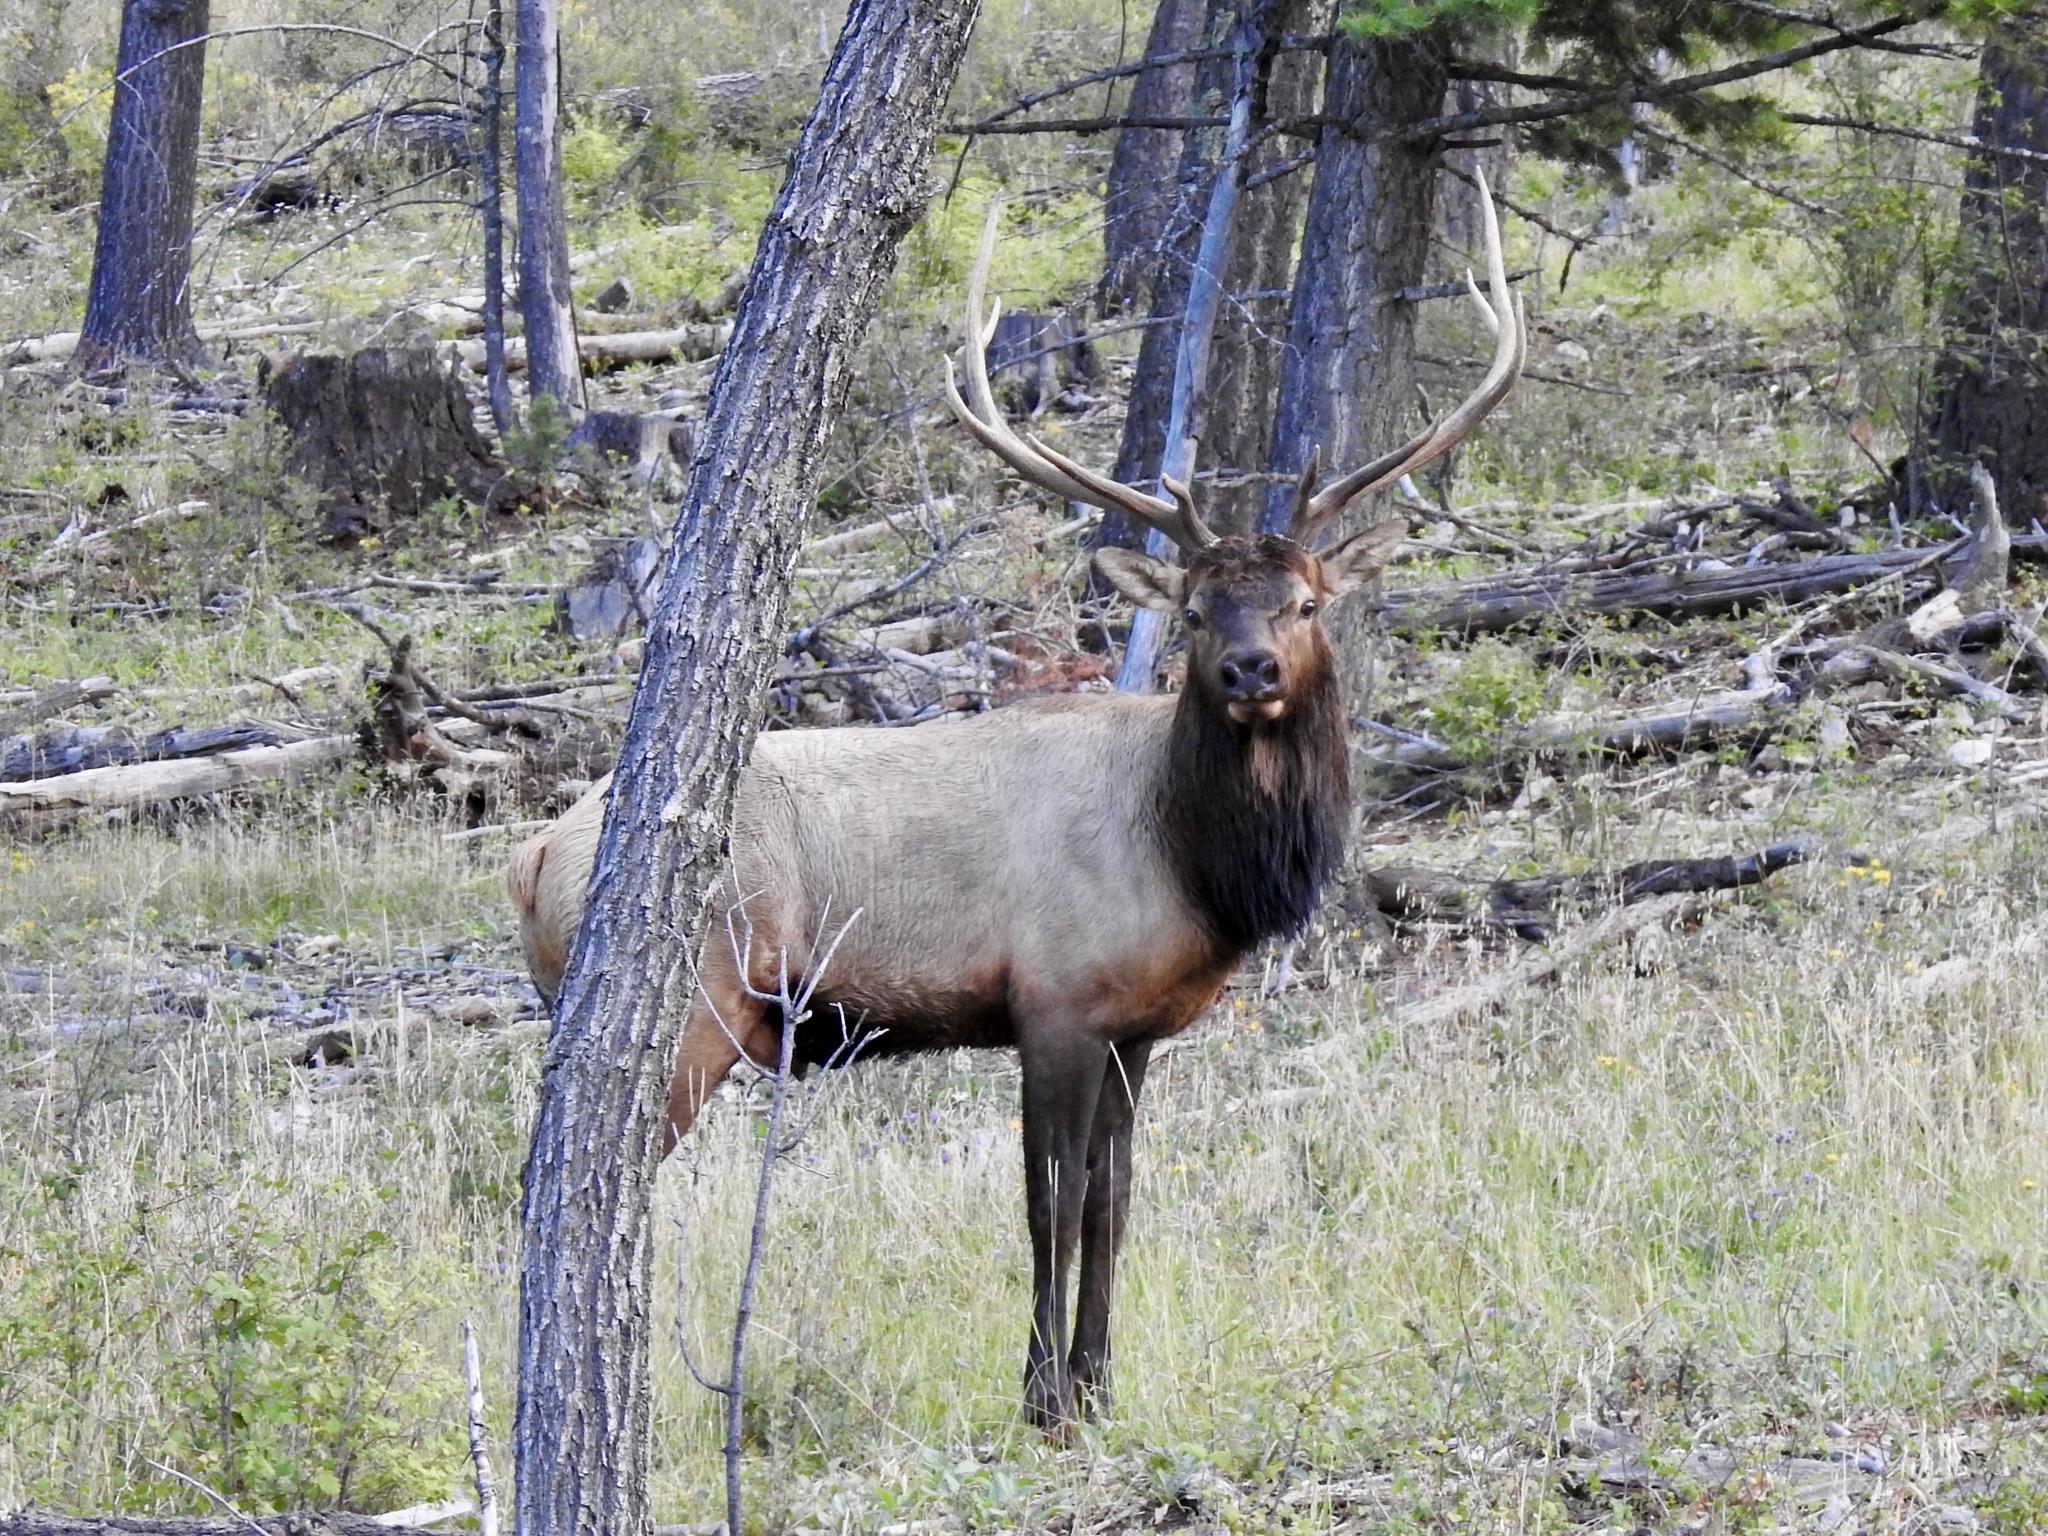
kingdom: Animalia
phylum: Chordata
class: Mammalia
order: Artiodactyla
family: Cervidae
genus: Cervus
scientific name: Cervus elaphus
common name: Red deer
